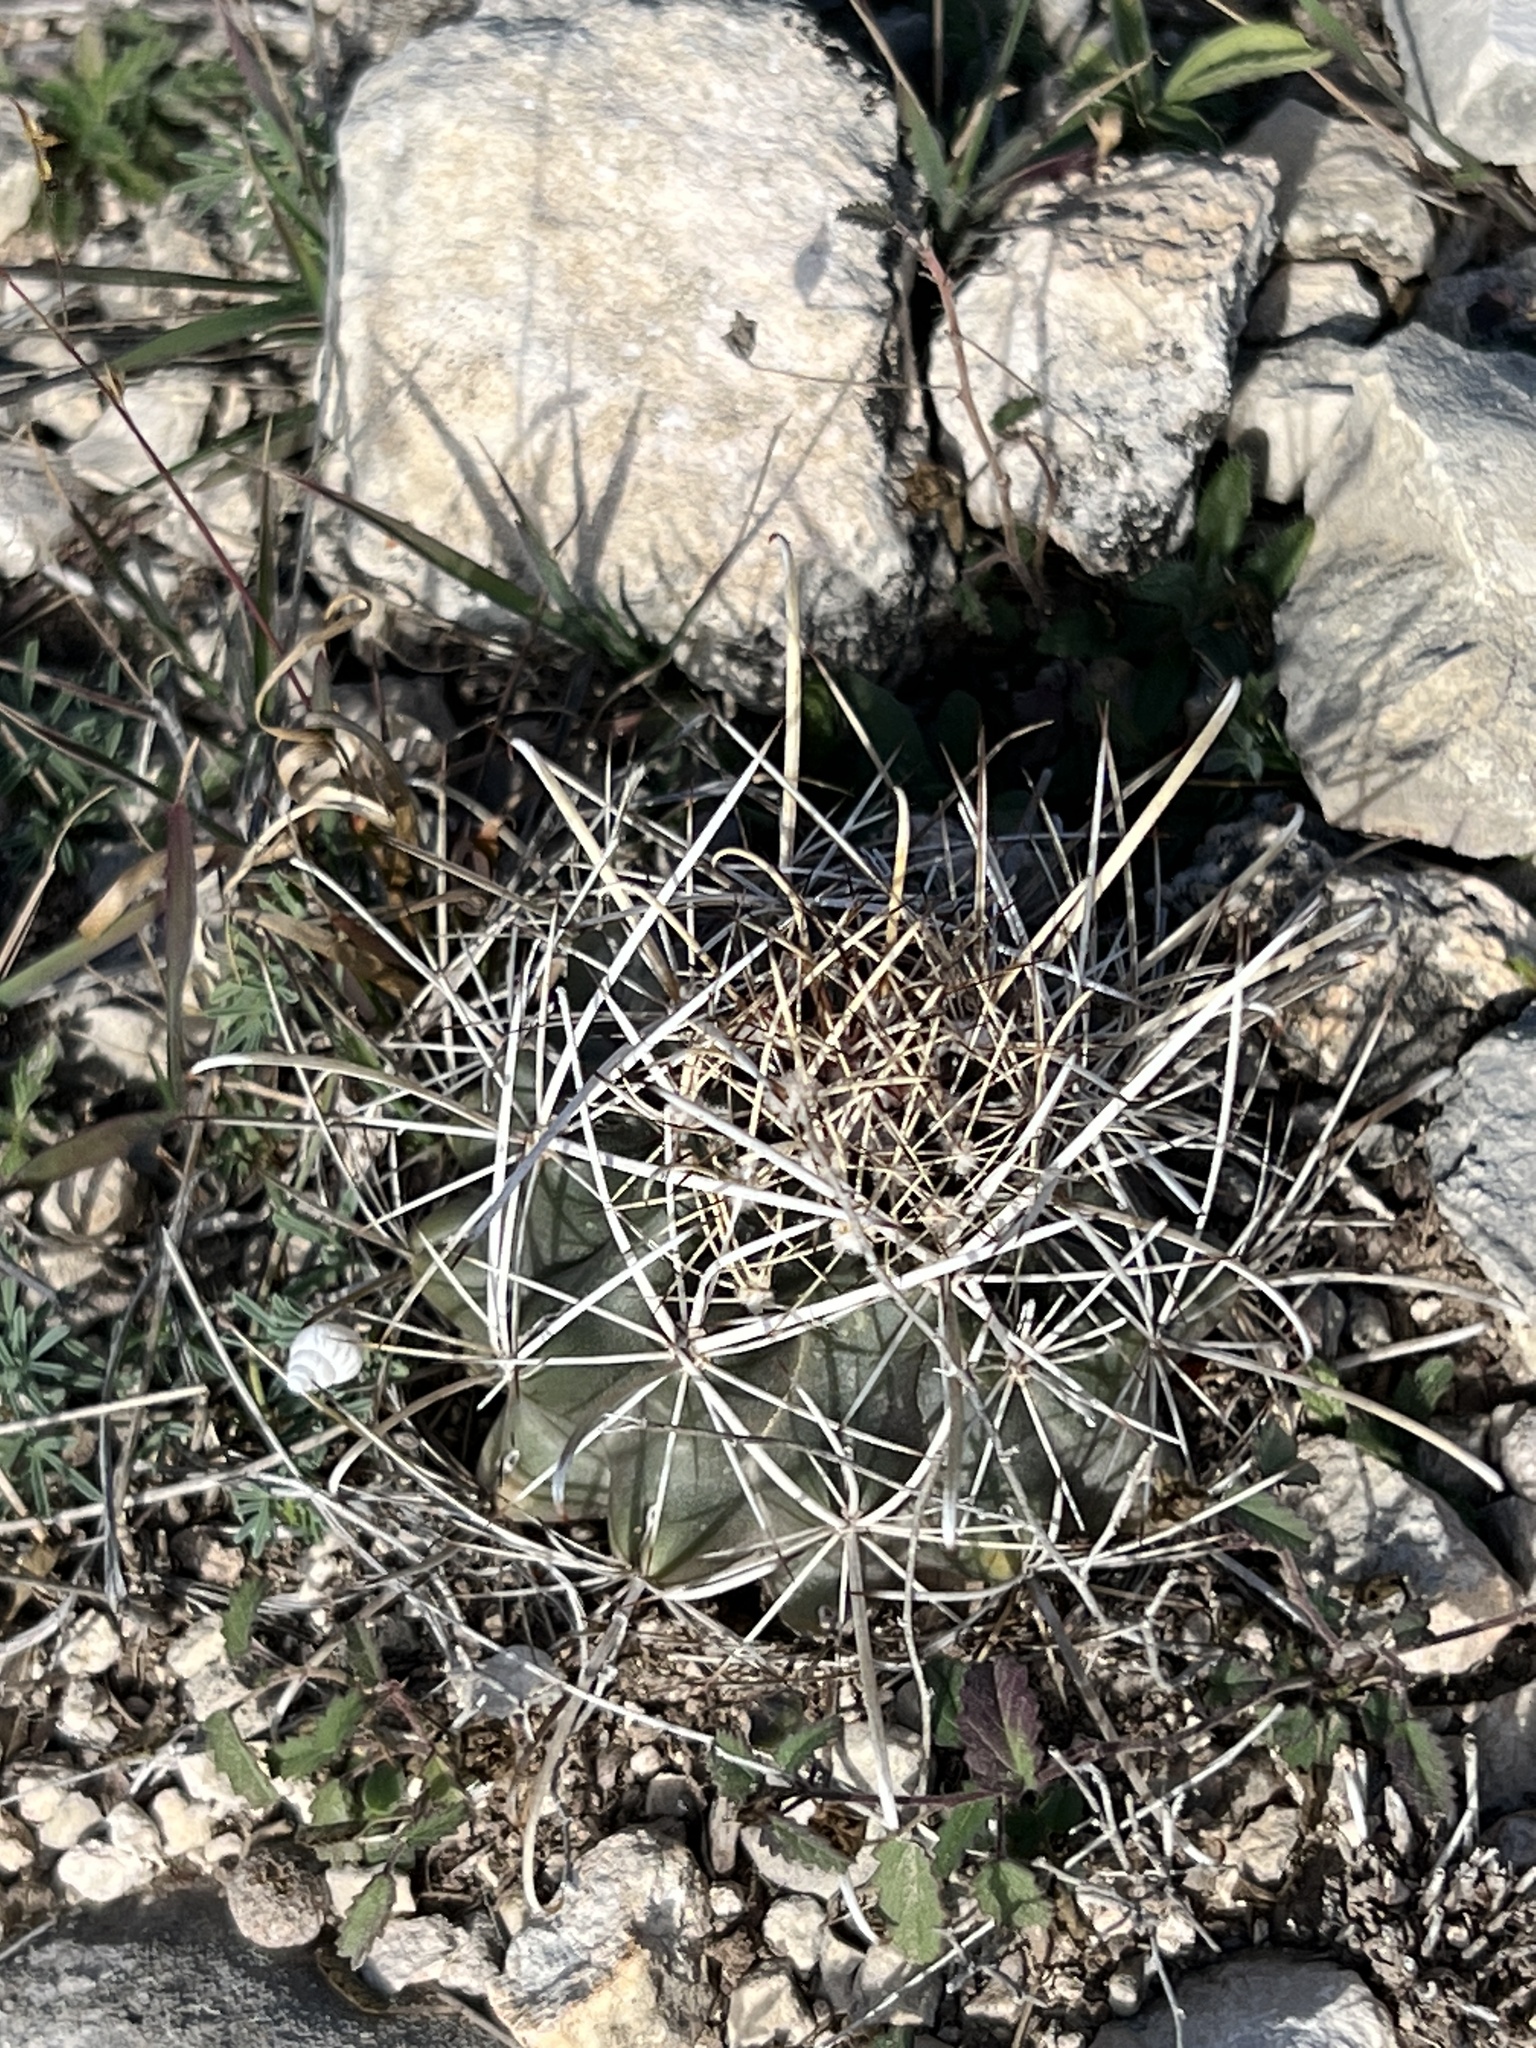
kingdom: Plantae
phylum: Tracheophyta
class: Magnoliopsida
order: Caryophyllales
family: Cactaceae
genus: Sclerocactus
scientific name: Sclerocactus brevihamatus
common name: Engelmann's fishhook cactus
